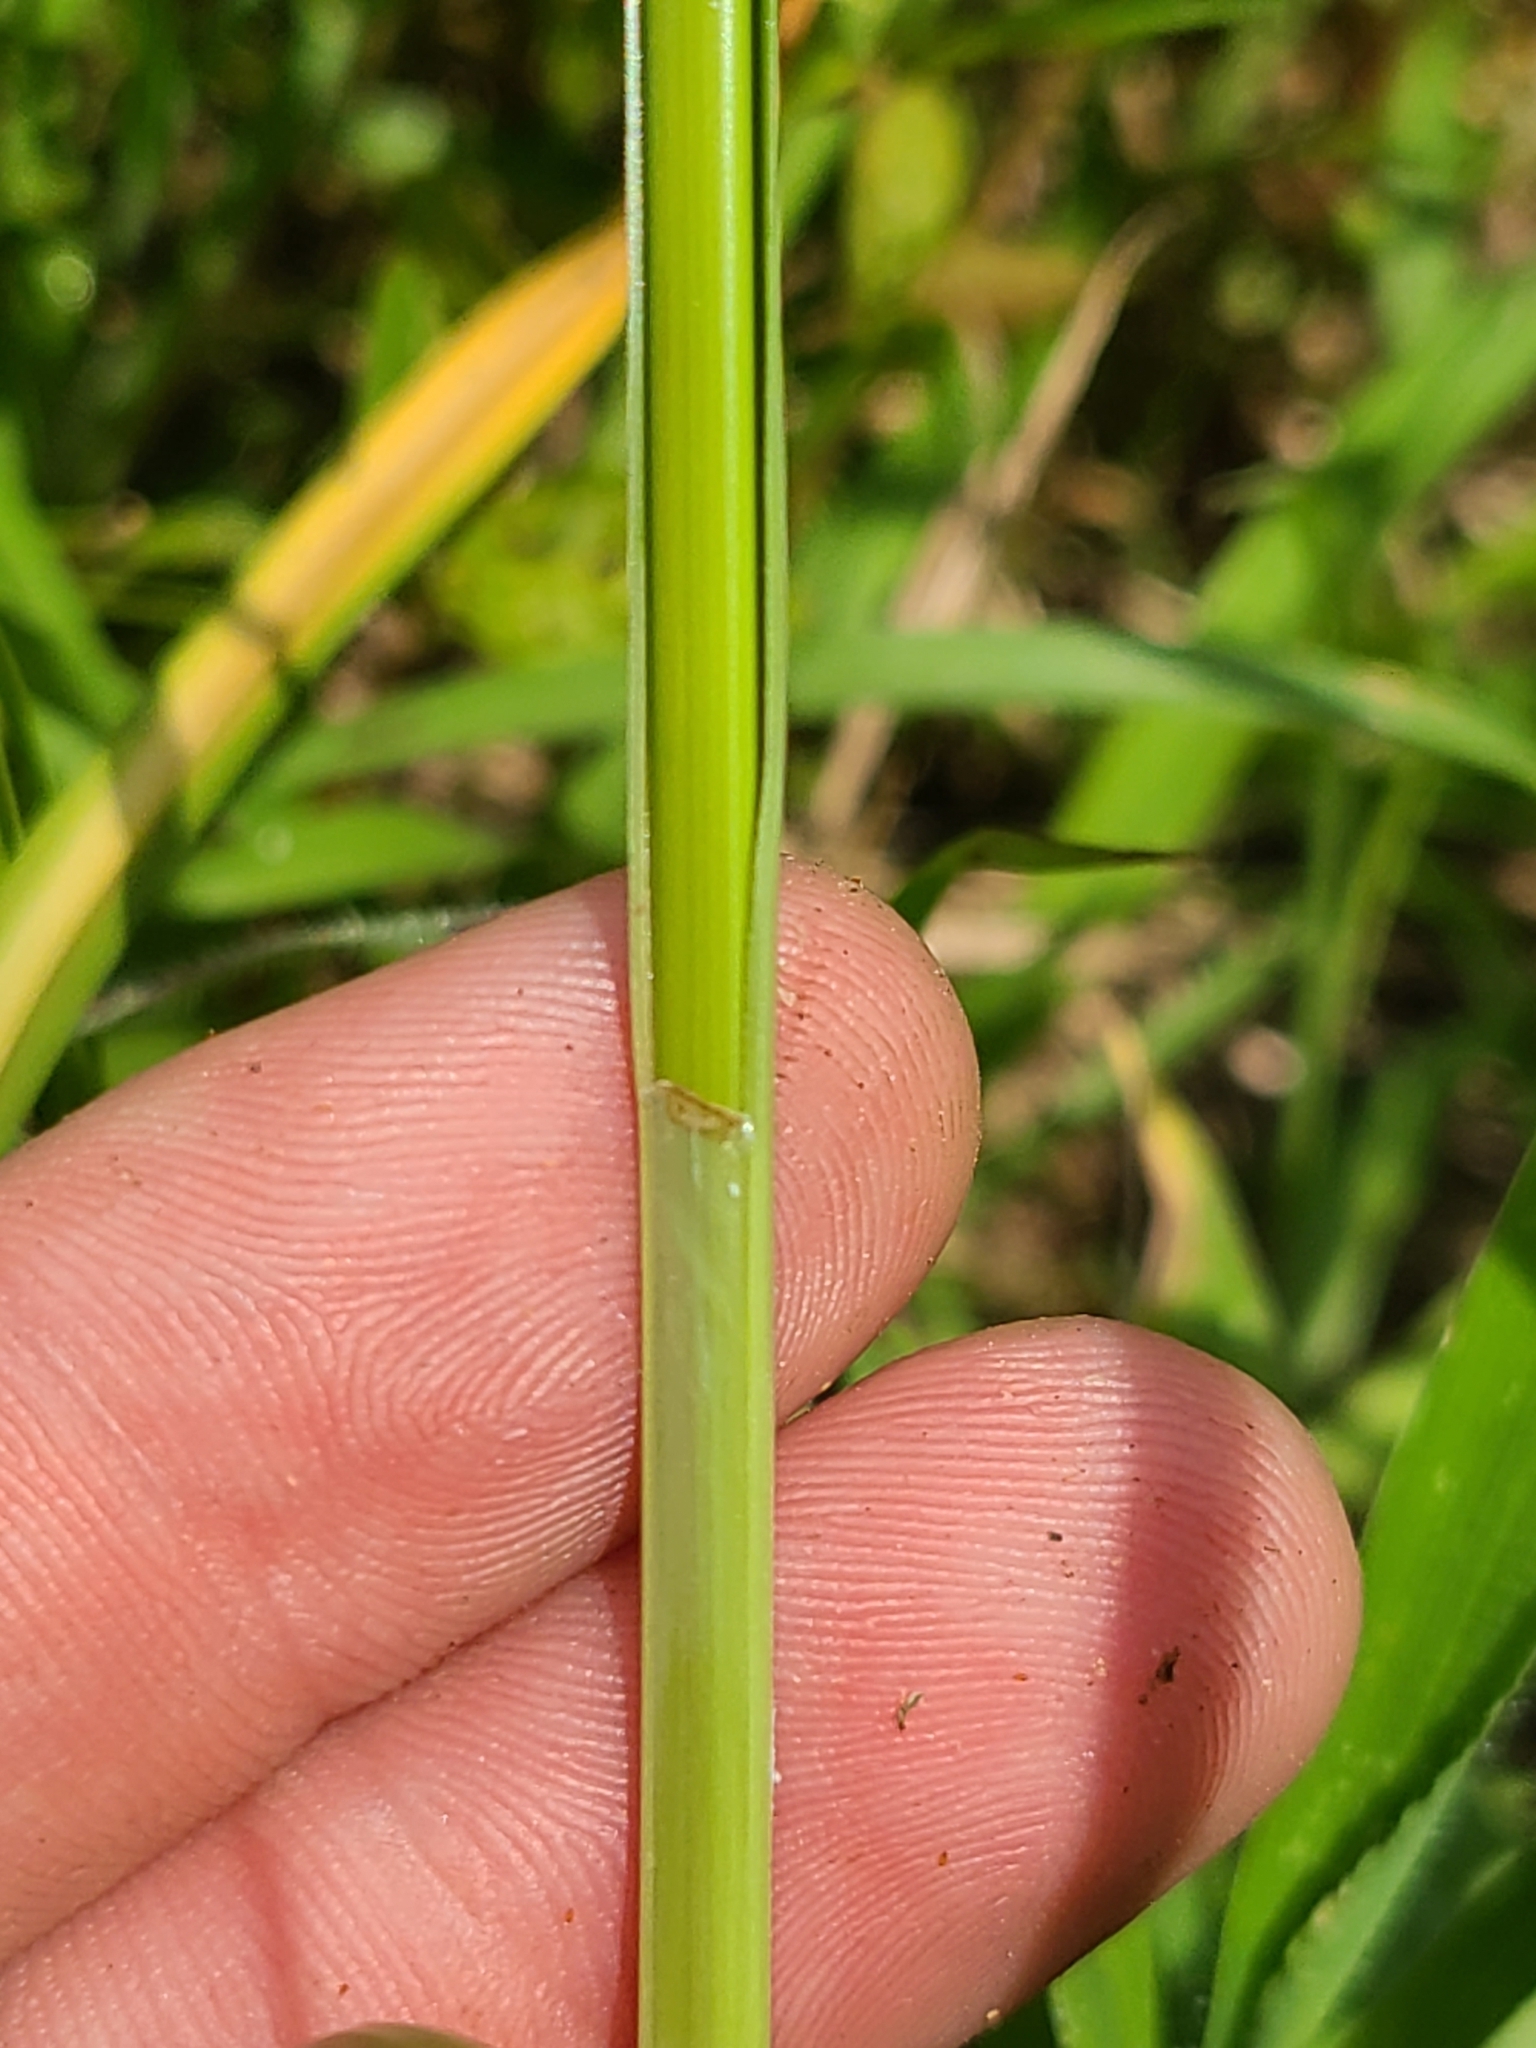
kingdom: Plantae
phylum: Tracheophyta
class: Liliopsida
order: Poales
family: Cyperaceae
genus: Cyperus
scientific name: Cyperus retrorsus
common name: Pinebarren flat sedge
